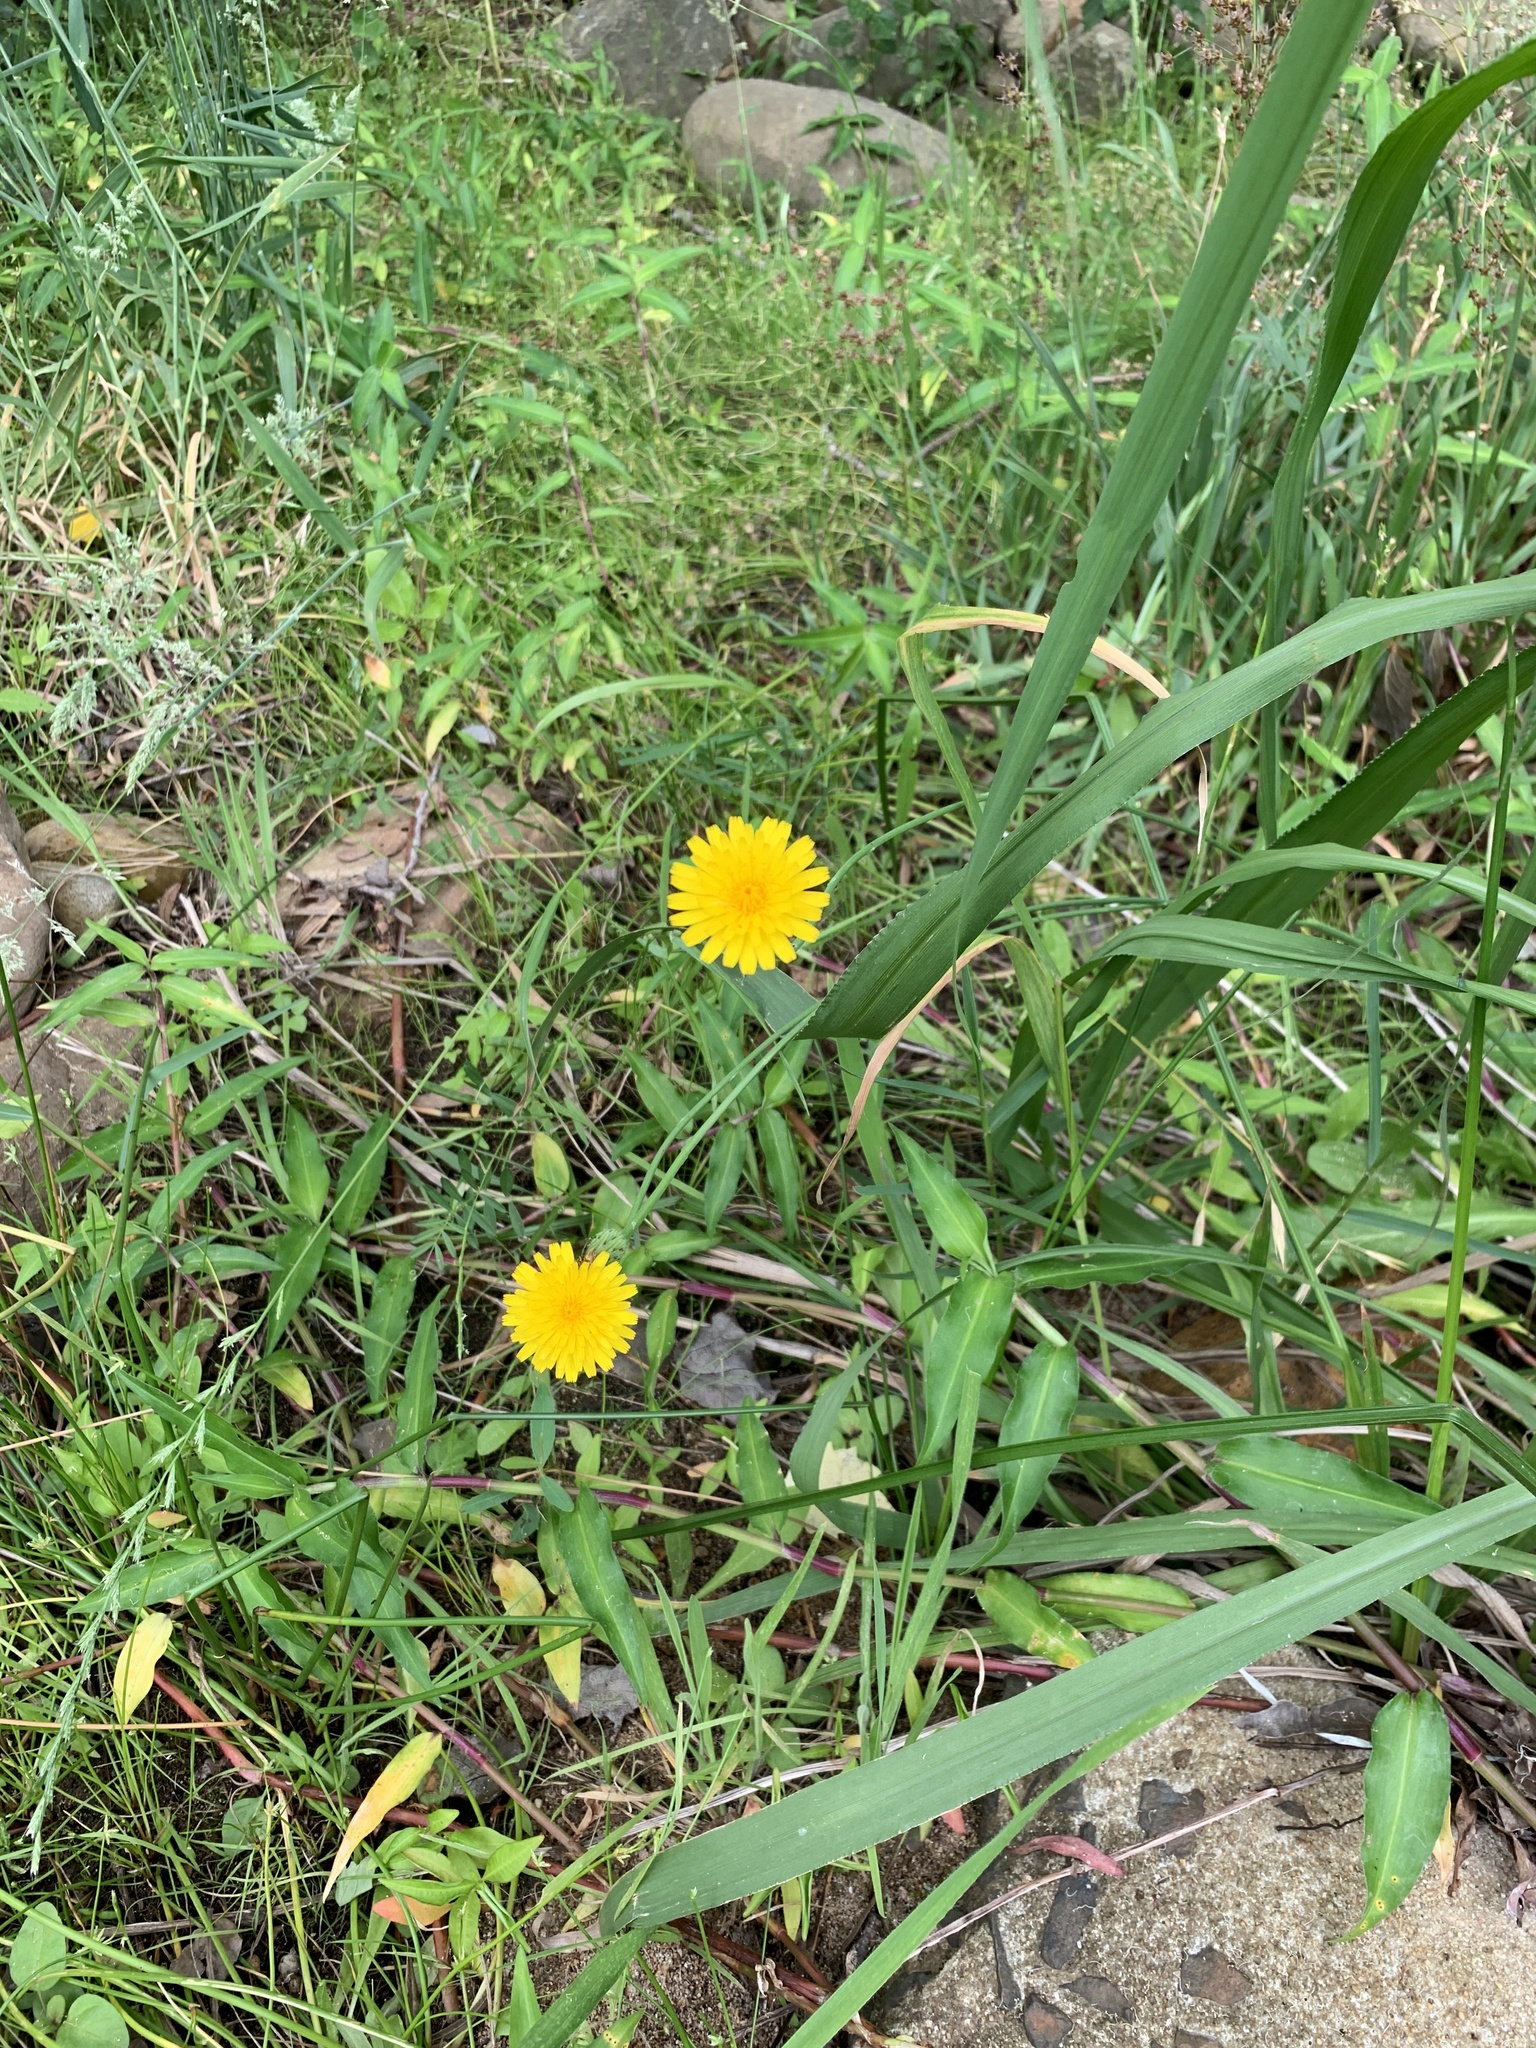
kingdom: Plantae
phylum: Tracheophyta
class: Magnoliopsida
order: Asterales
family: Asteraceae
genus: Hypochaeris
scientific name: Hypochaeris radicata
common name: Flatweed
